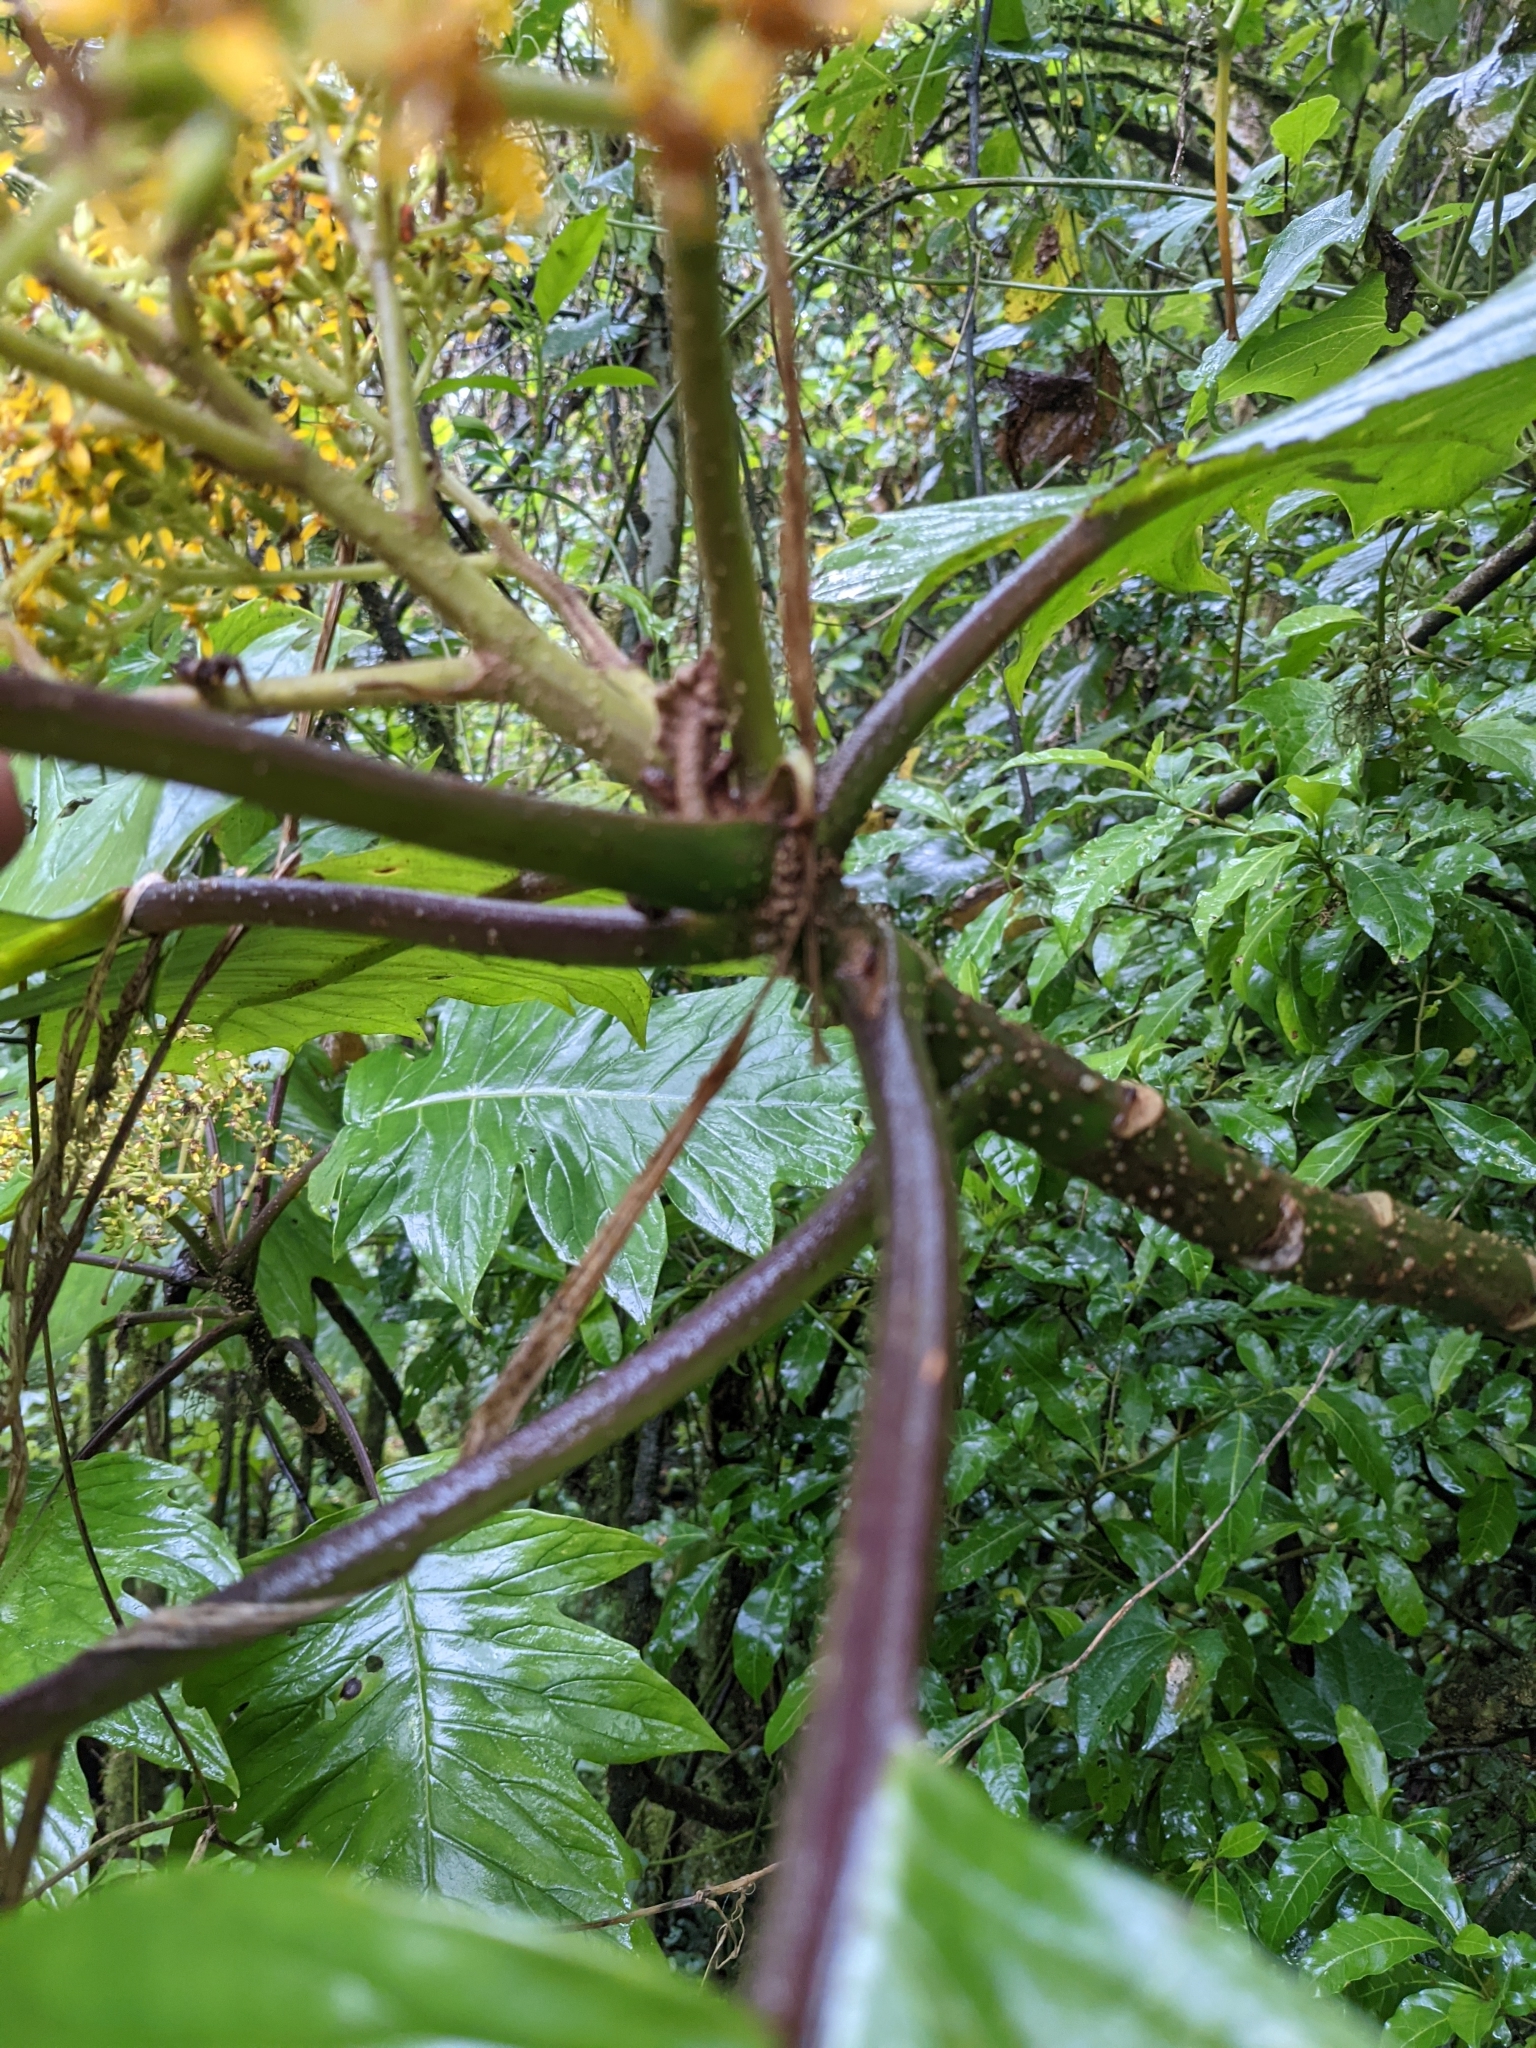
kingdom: Plantae
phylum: Tracheophyta
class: Magnoliopsida
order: Asterales
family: Asteraceae
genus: Jessea
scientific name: Jessea cooperi
